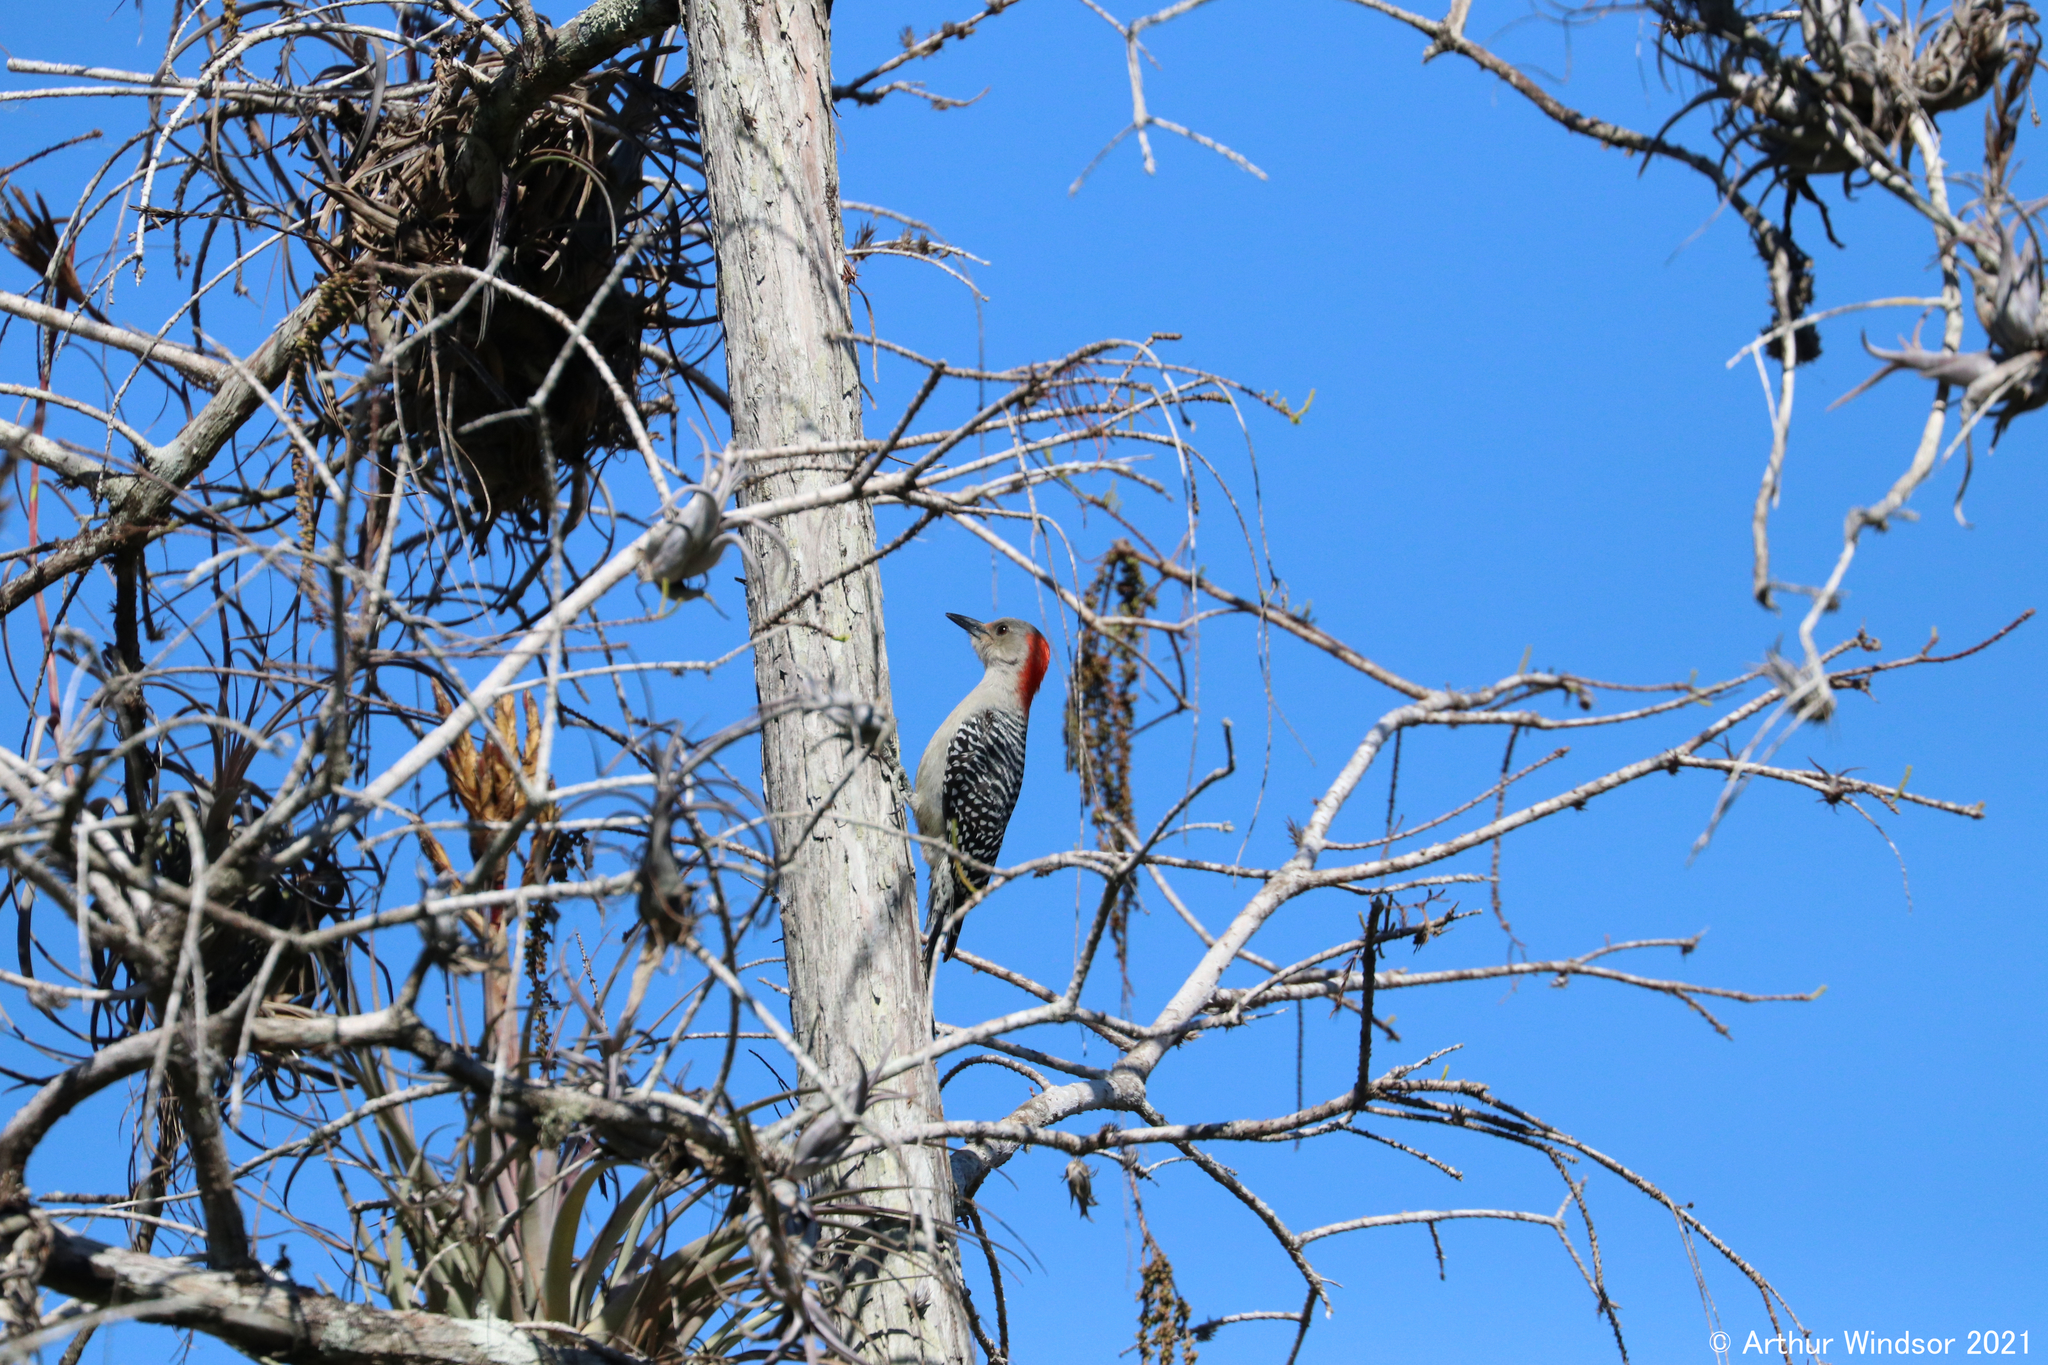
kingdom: Animalia
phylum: Chordata
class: Aves
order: Piciformes
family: Picidae
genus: Melanerpes
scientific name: Melanerpes carolinus
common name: Red-bellied woodpecker
